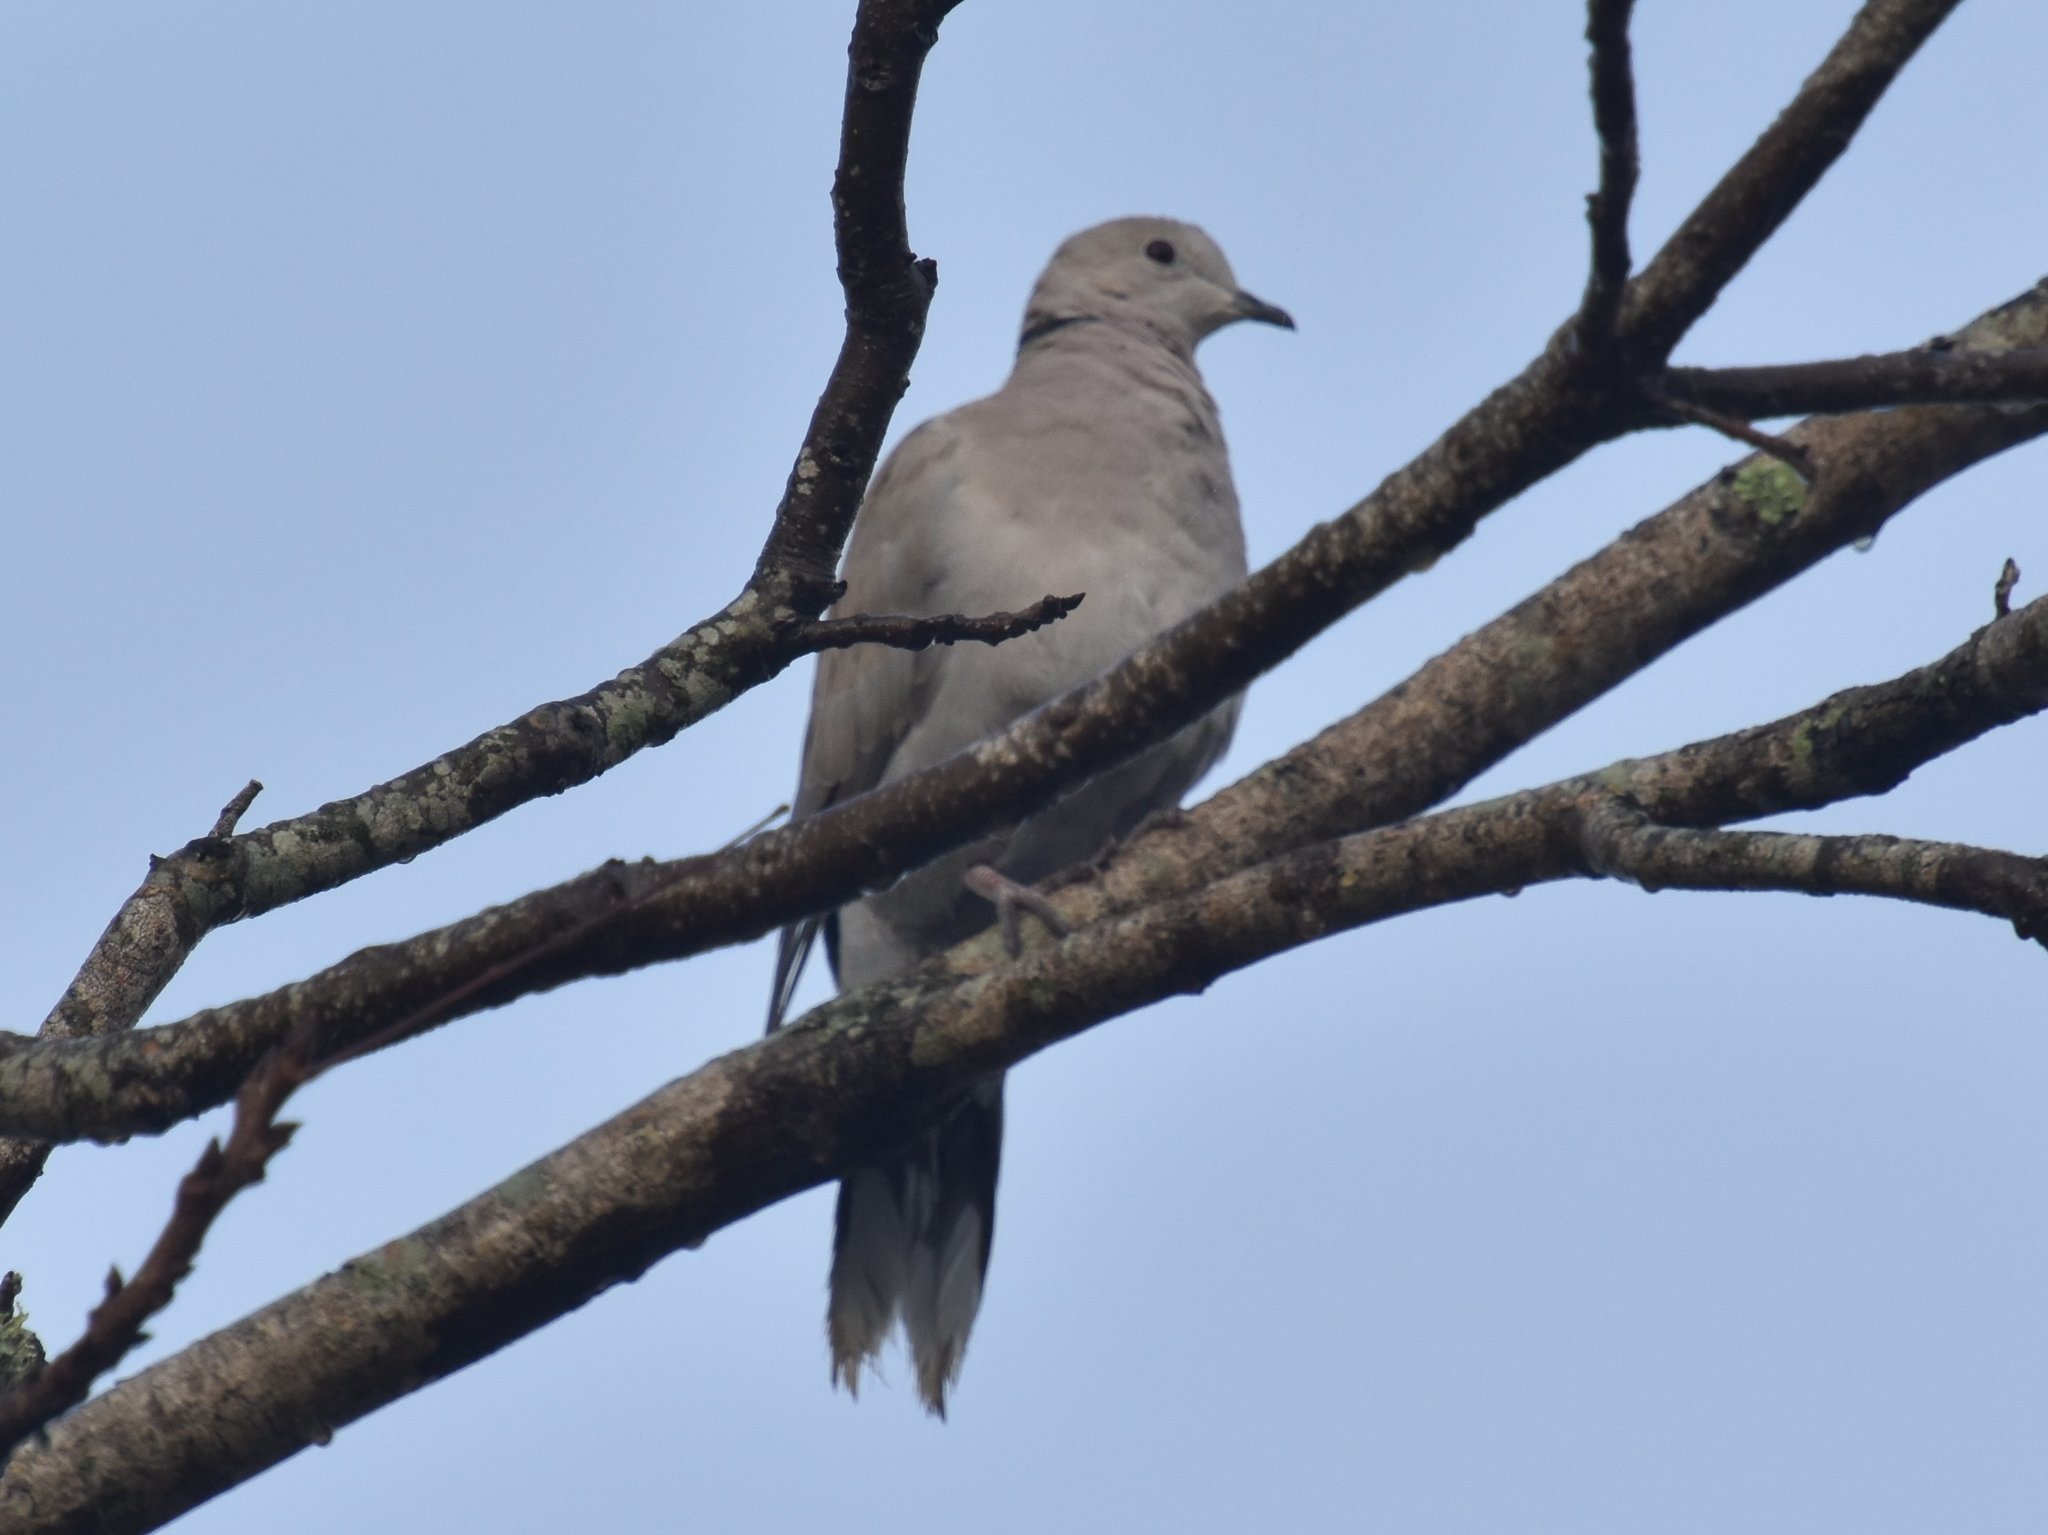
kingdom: Animalia
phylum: Chordata
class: Aves
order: Columbiformes
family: Columbidae
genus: Streptopelia
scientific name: Streptopelia decaocto
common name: Eurasian collared dove
